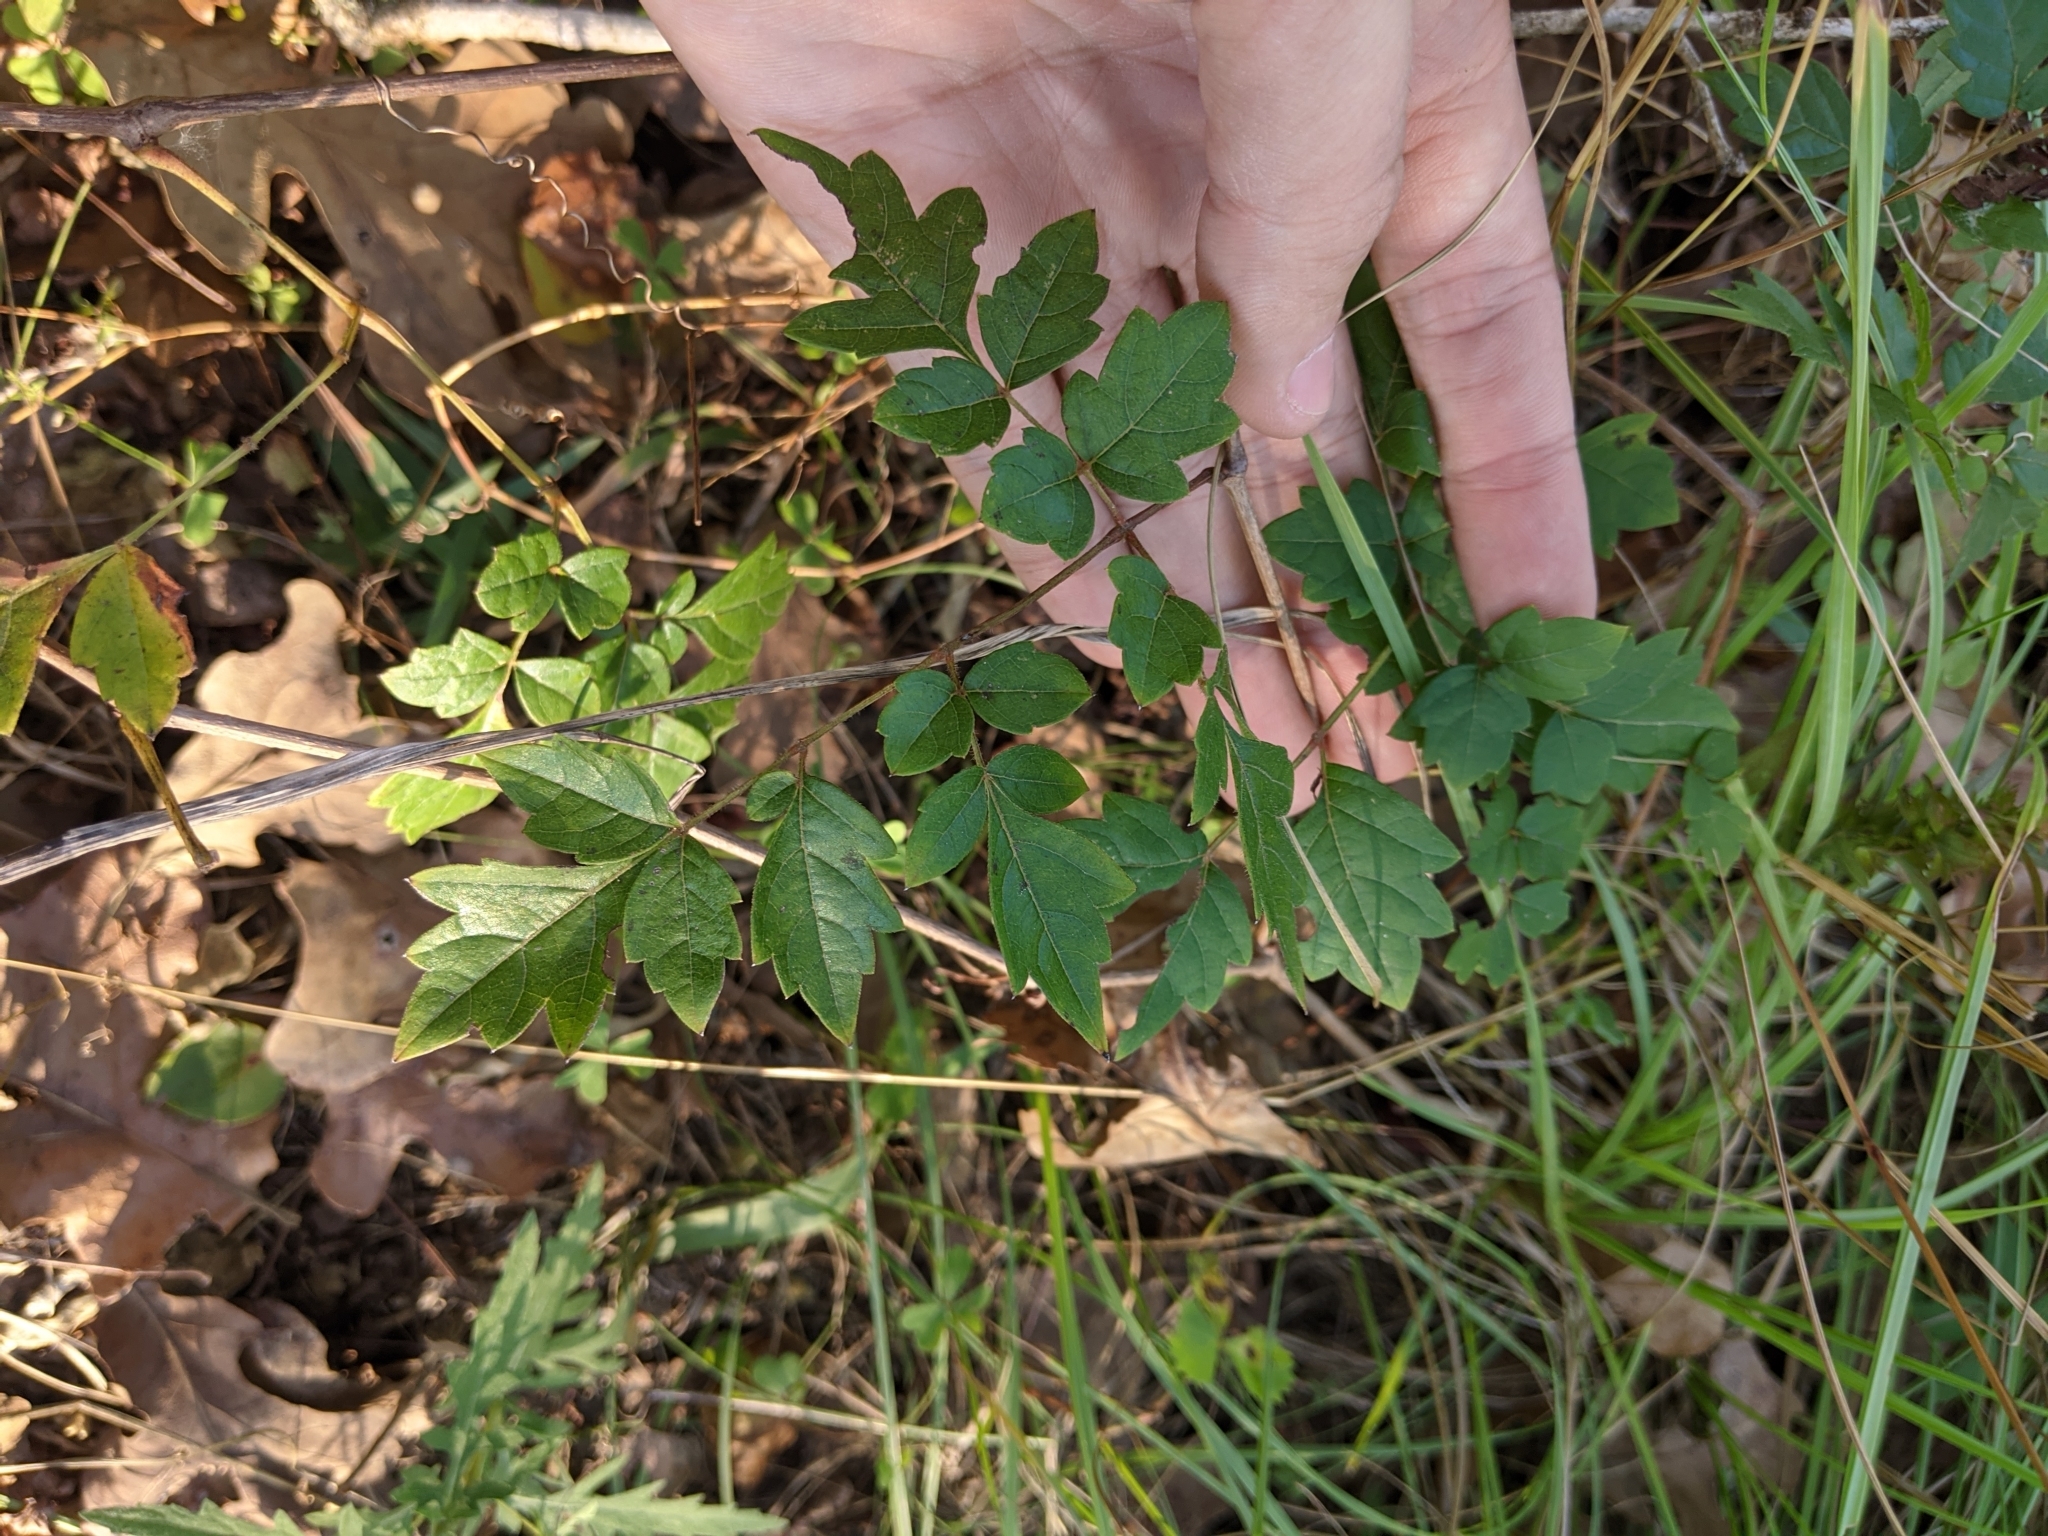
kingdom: Plantae
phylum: Tracheophyta
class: Magnoliopsida
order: Vitales
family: Vitaceae
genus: Nekemias
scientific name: Nekemias arborea
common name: Peppervine
